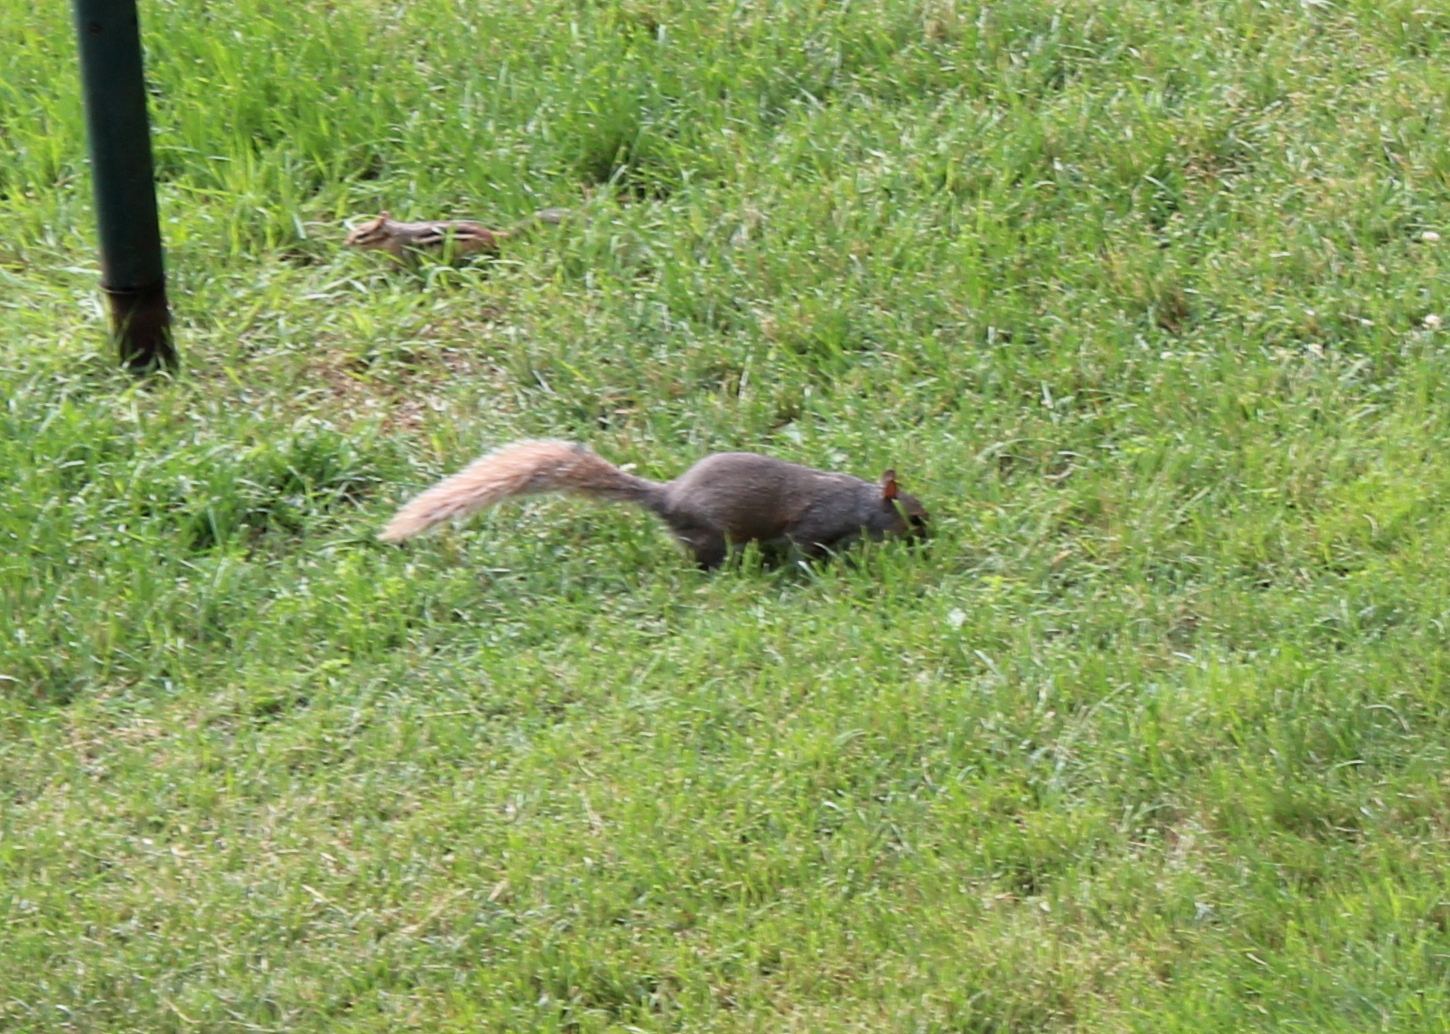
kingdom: Animalia
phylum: Chordata
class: Mammalia
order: Rodentia
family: Sciuridae
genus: Sciurus
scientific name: Sciurus carolinensis
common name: Eastern gray squirrel
